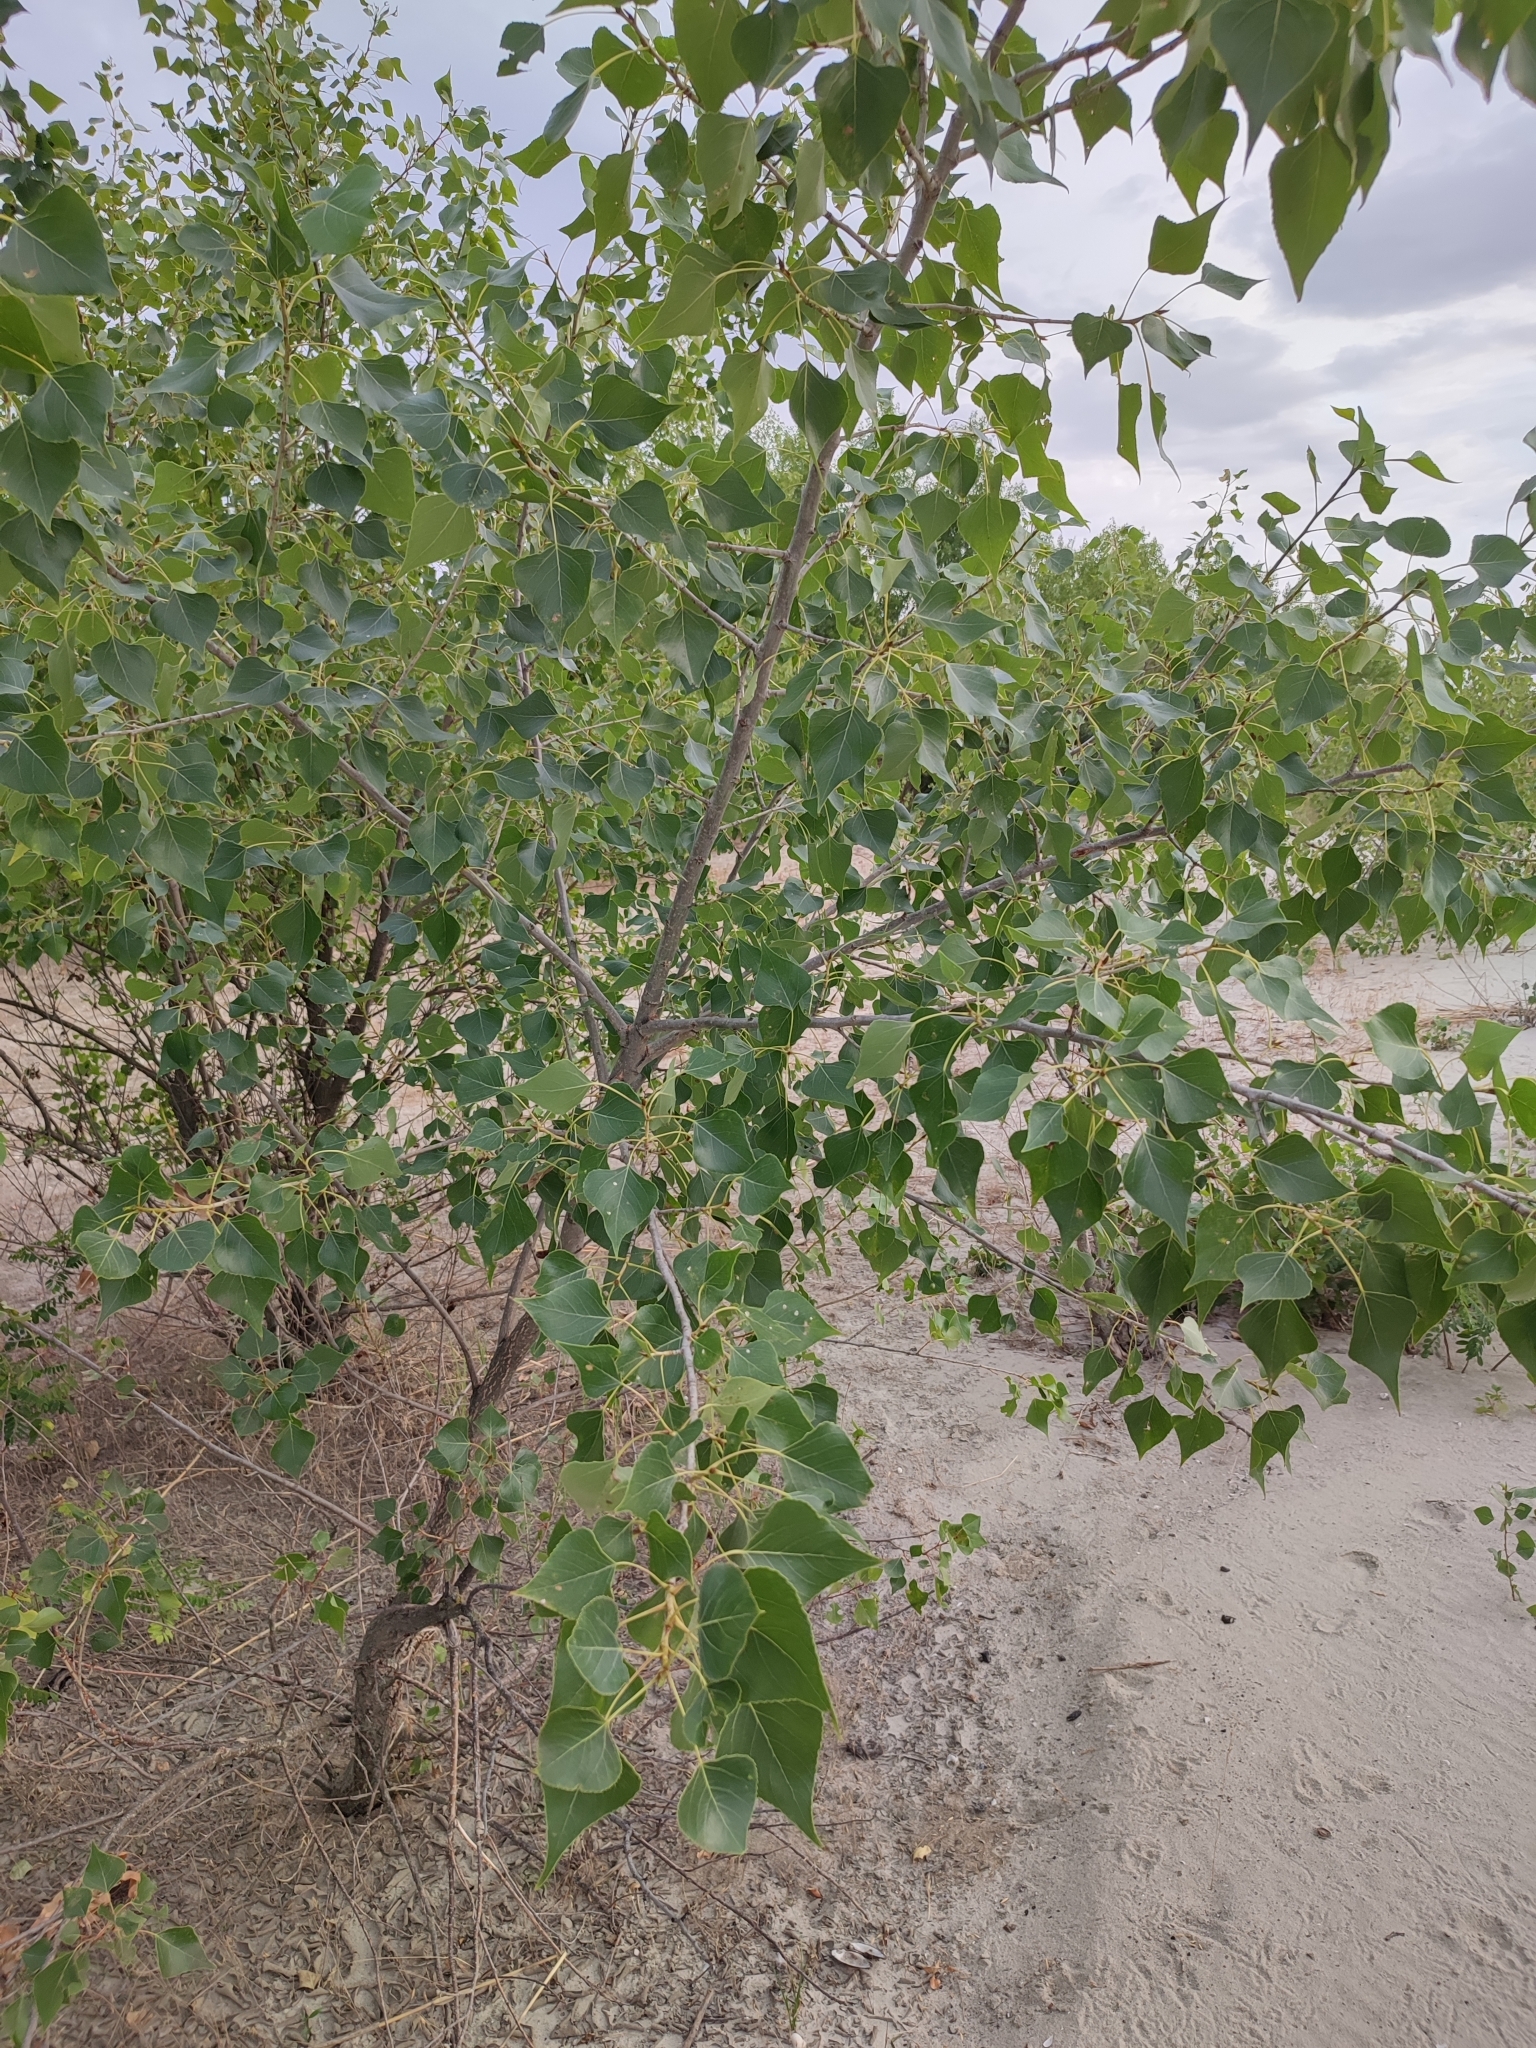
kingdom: Plantae
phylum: Tracheophyta
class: Magnoliopsida
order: Malpighiales
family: Salicaceae
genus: Populus
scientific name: Populus nigra
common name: Black poplar
